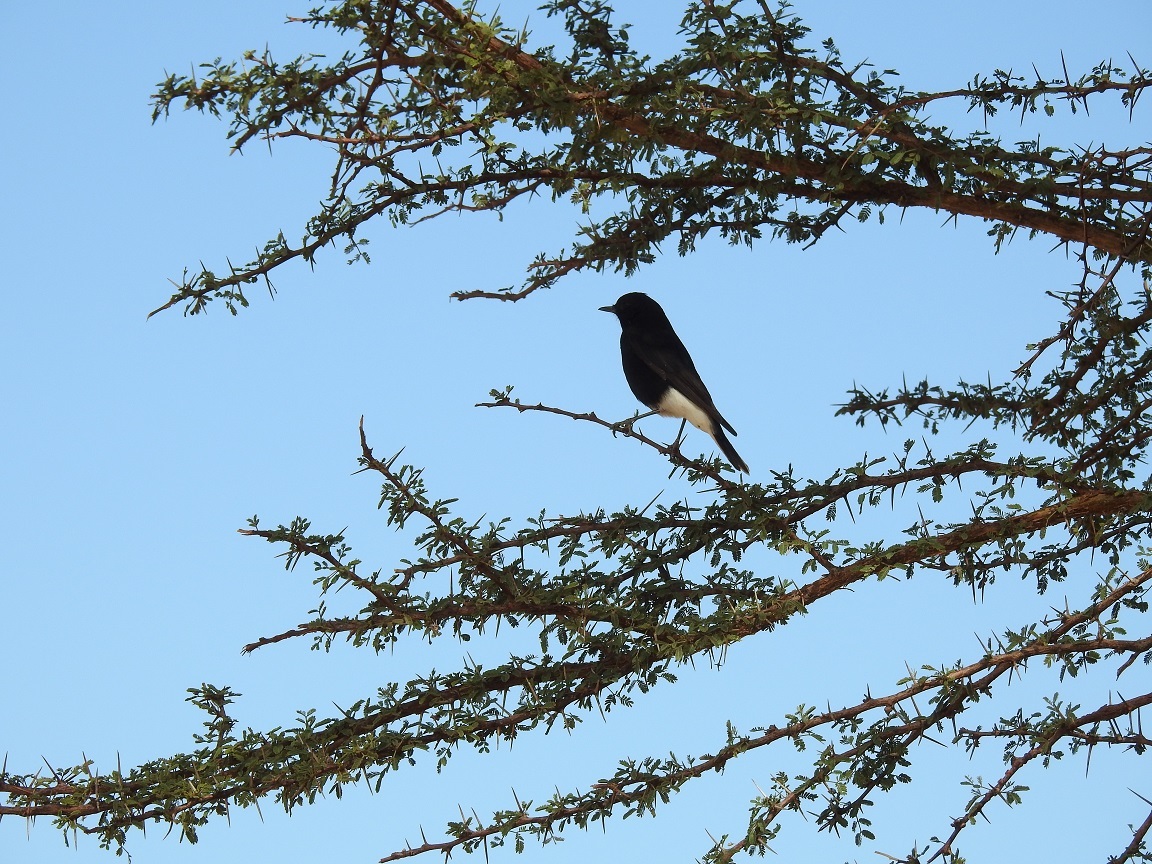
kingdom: Animalia
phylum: Chordata
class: Aves
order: Passeriformes
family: Muscicapidae
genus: Oenanthe
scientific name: Oenanthe leucopyga
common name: White-crowned wheatear
